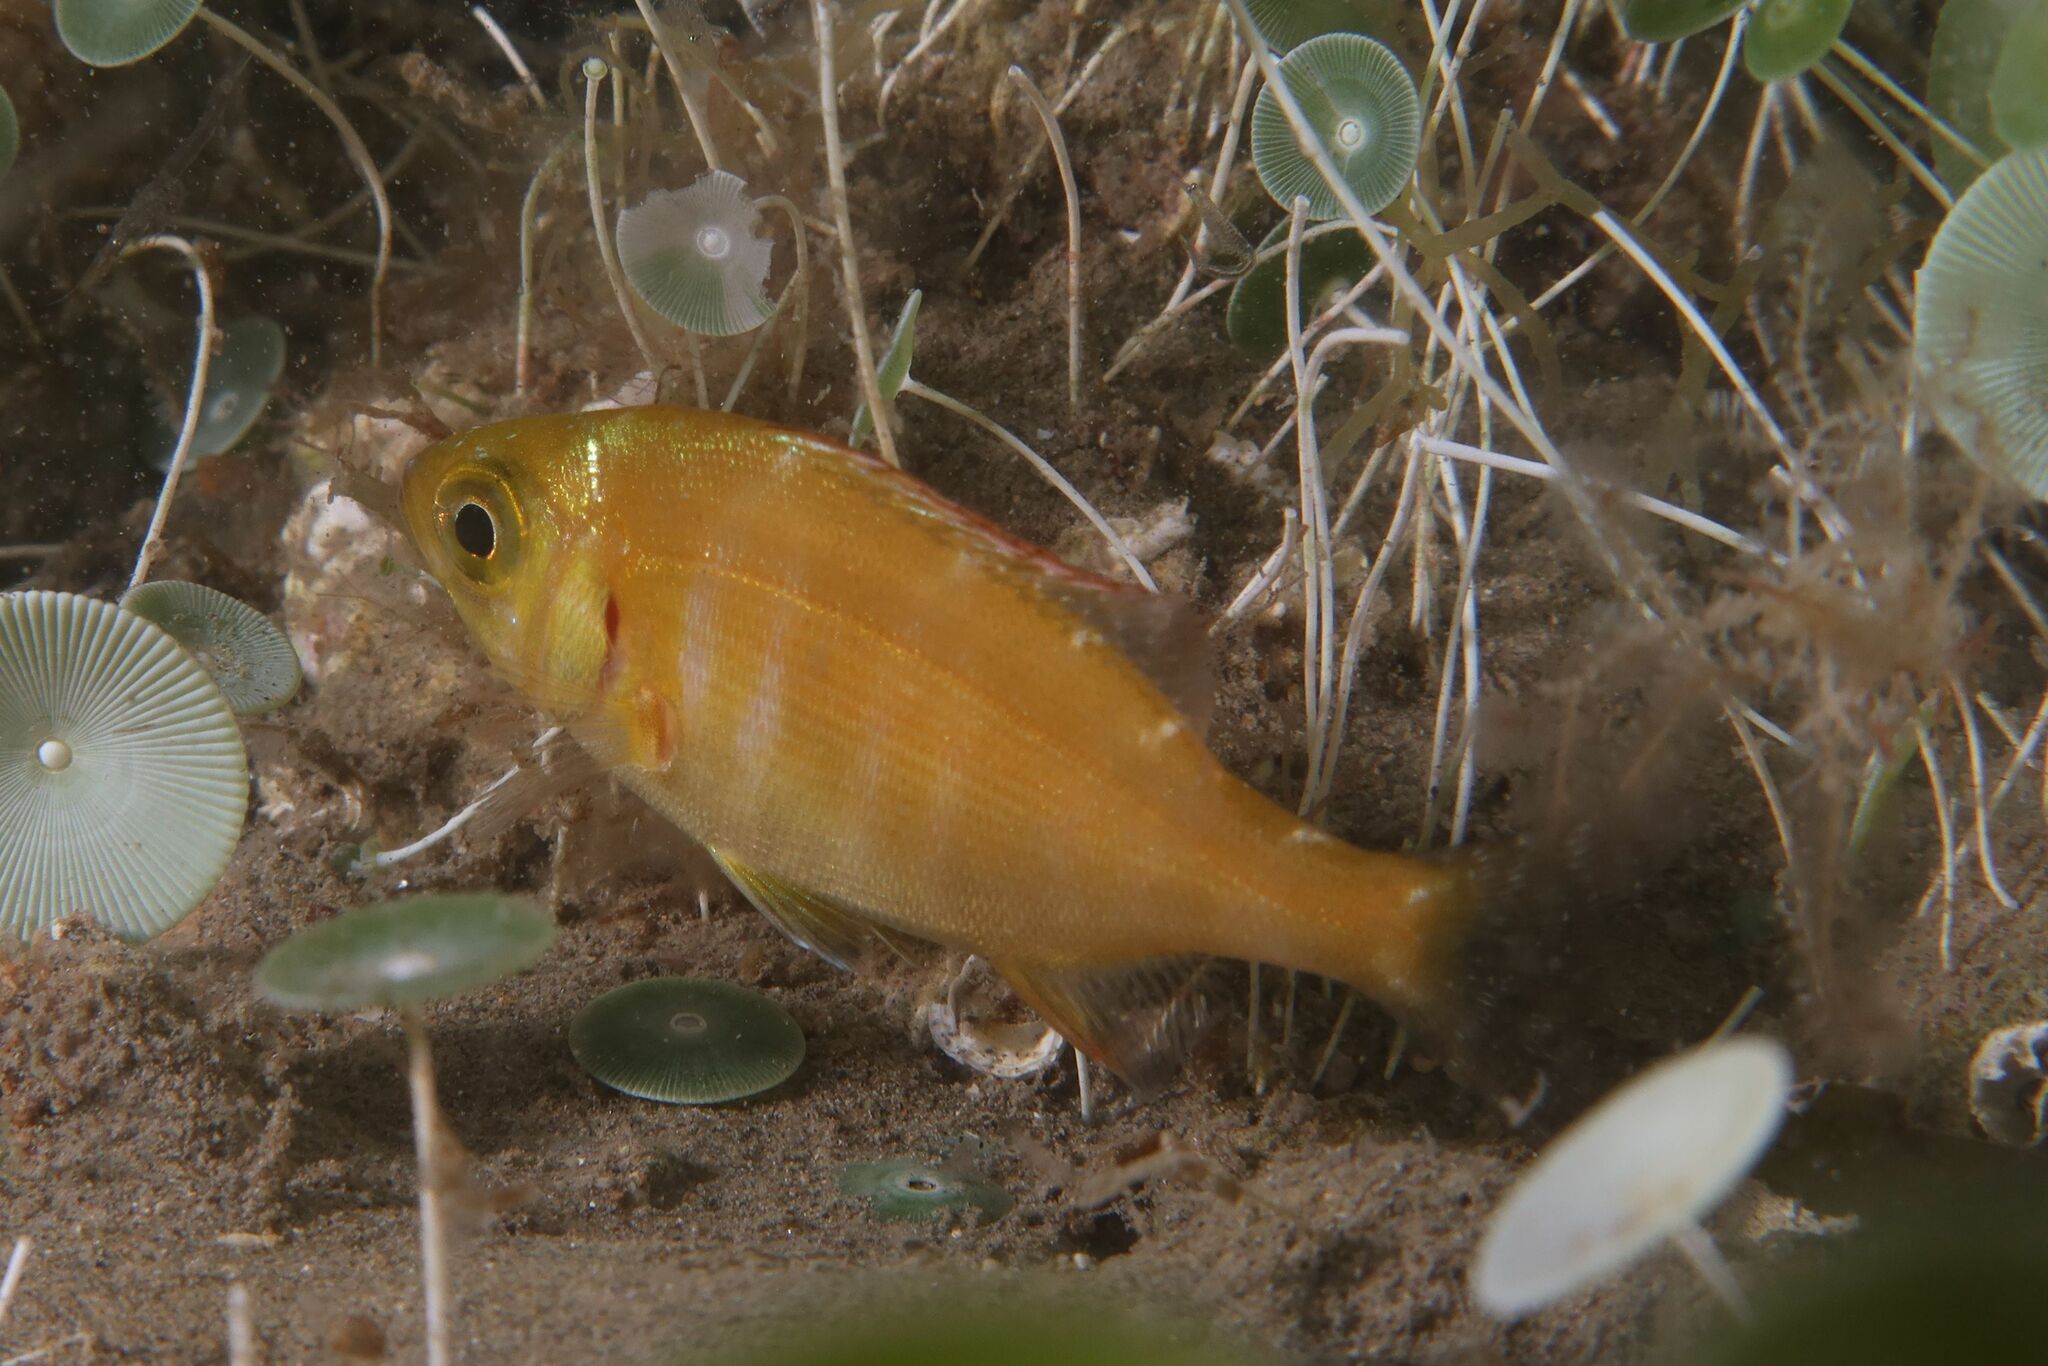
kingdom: Animalia
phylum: Chordata
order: Perciformes
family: Sparidae
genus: Spondyliosoma
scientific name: Spondyliosoma cantharus
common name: Black seabream
